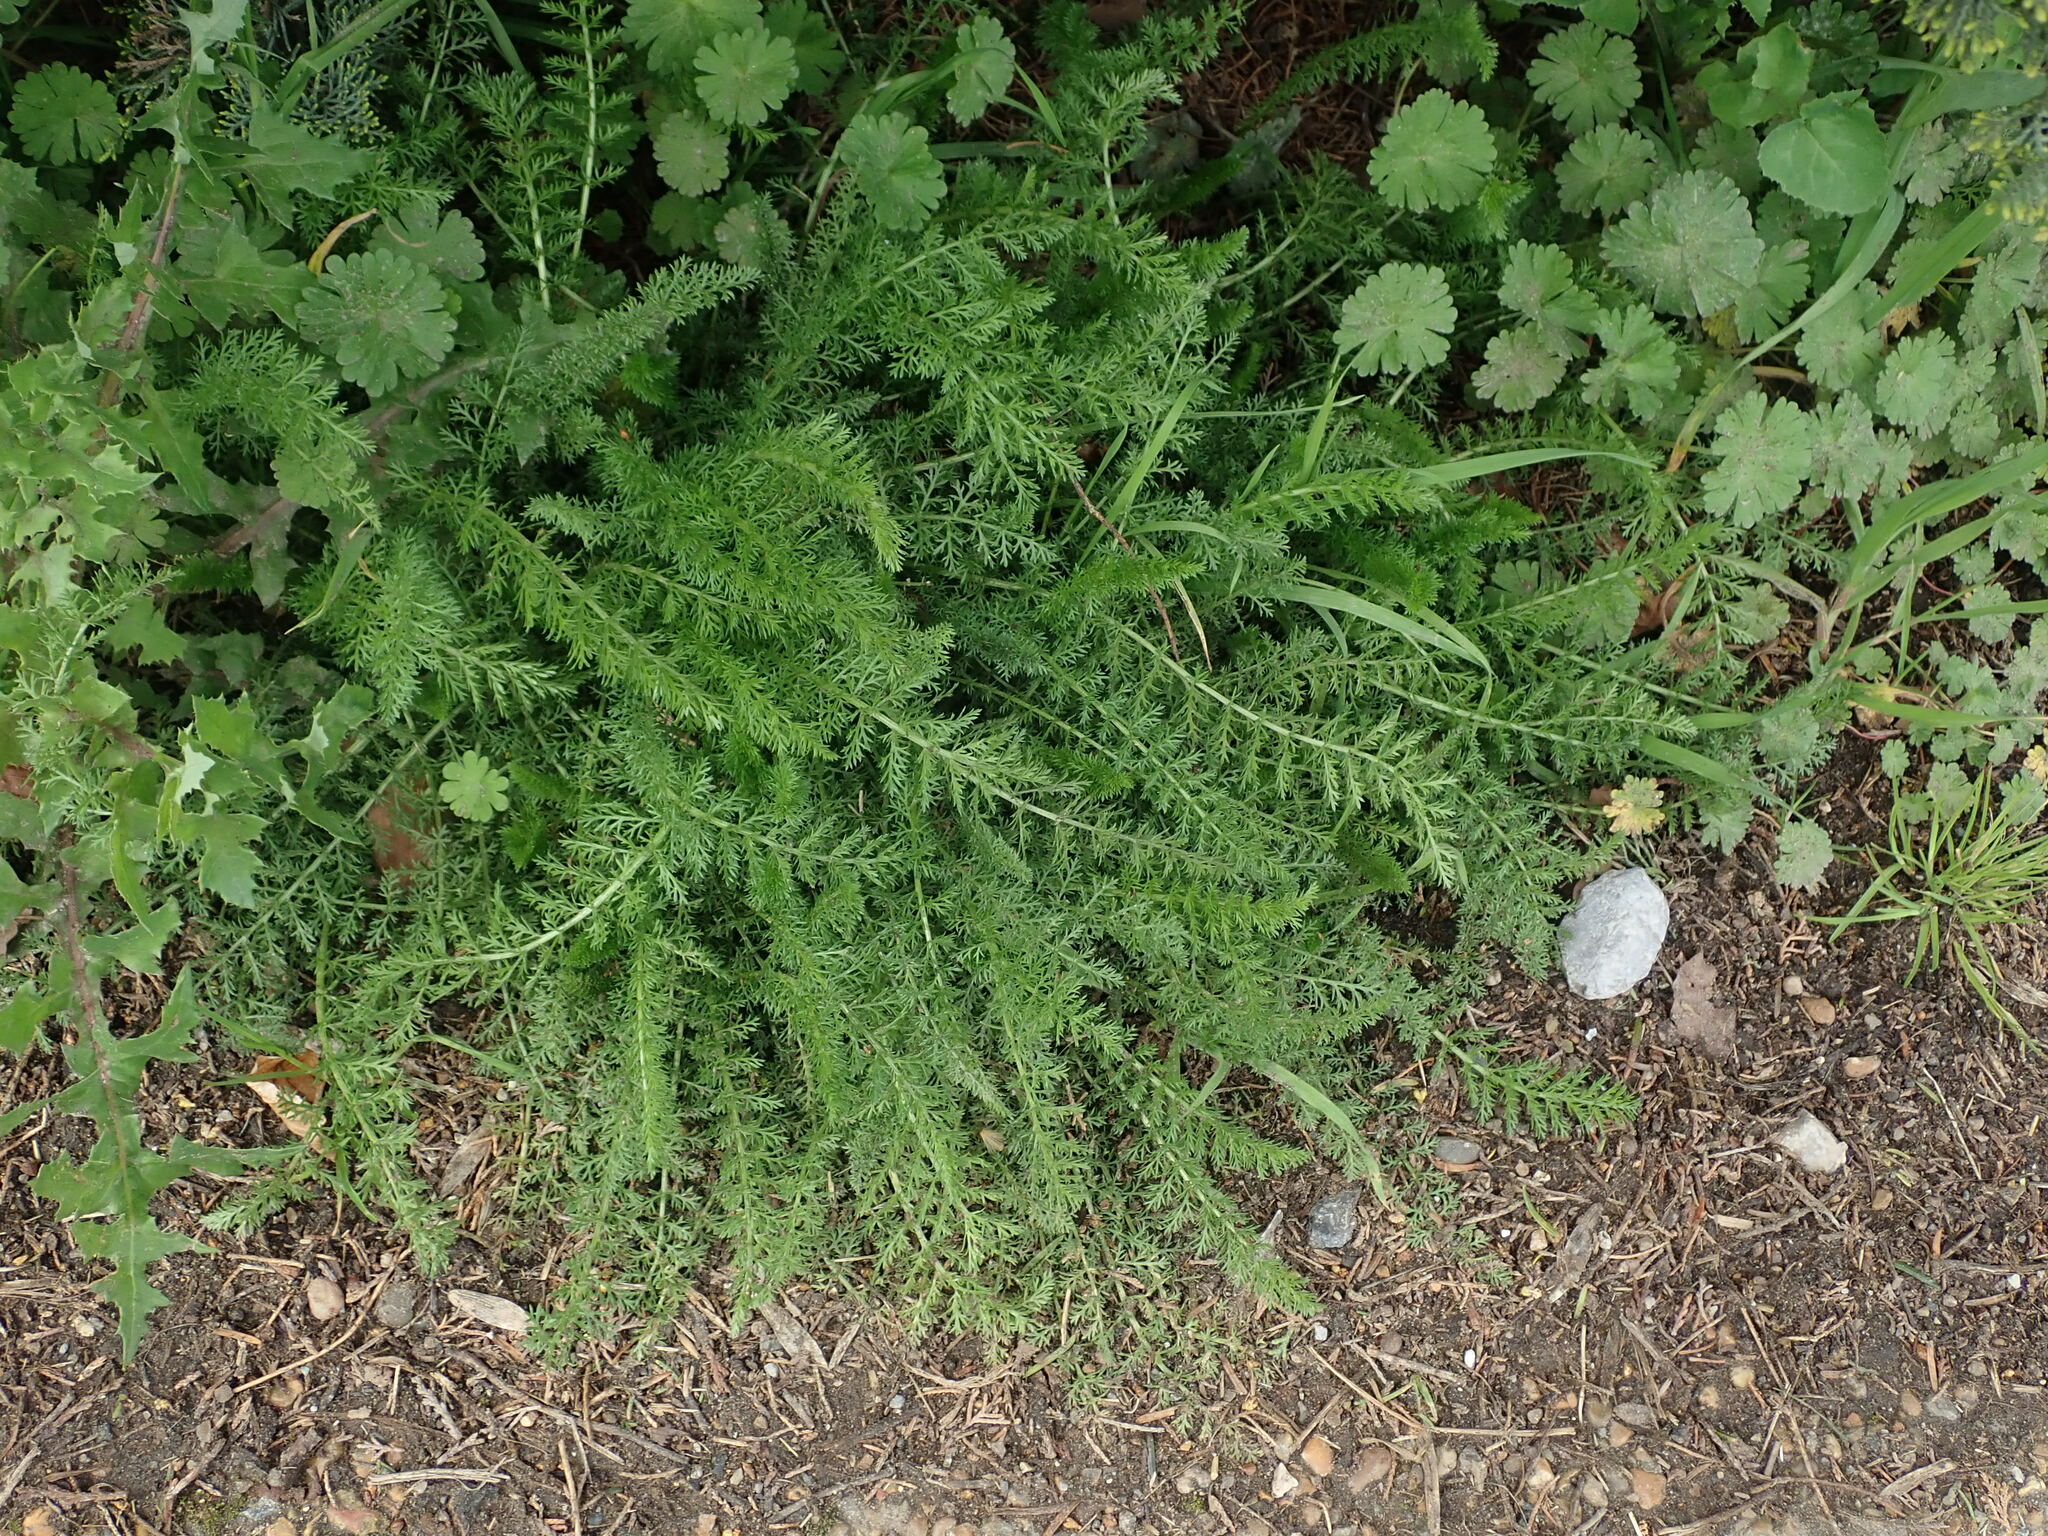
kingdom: Plantae
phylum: Tracheophyta
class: Magnoliopsida
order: Asterales
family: Asteraceae
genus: Achillea
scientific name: Achillea millefolium
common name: Yarrow
